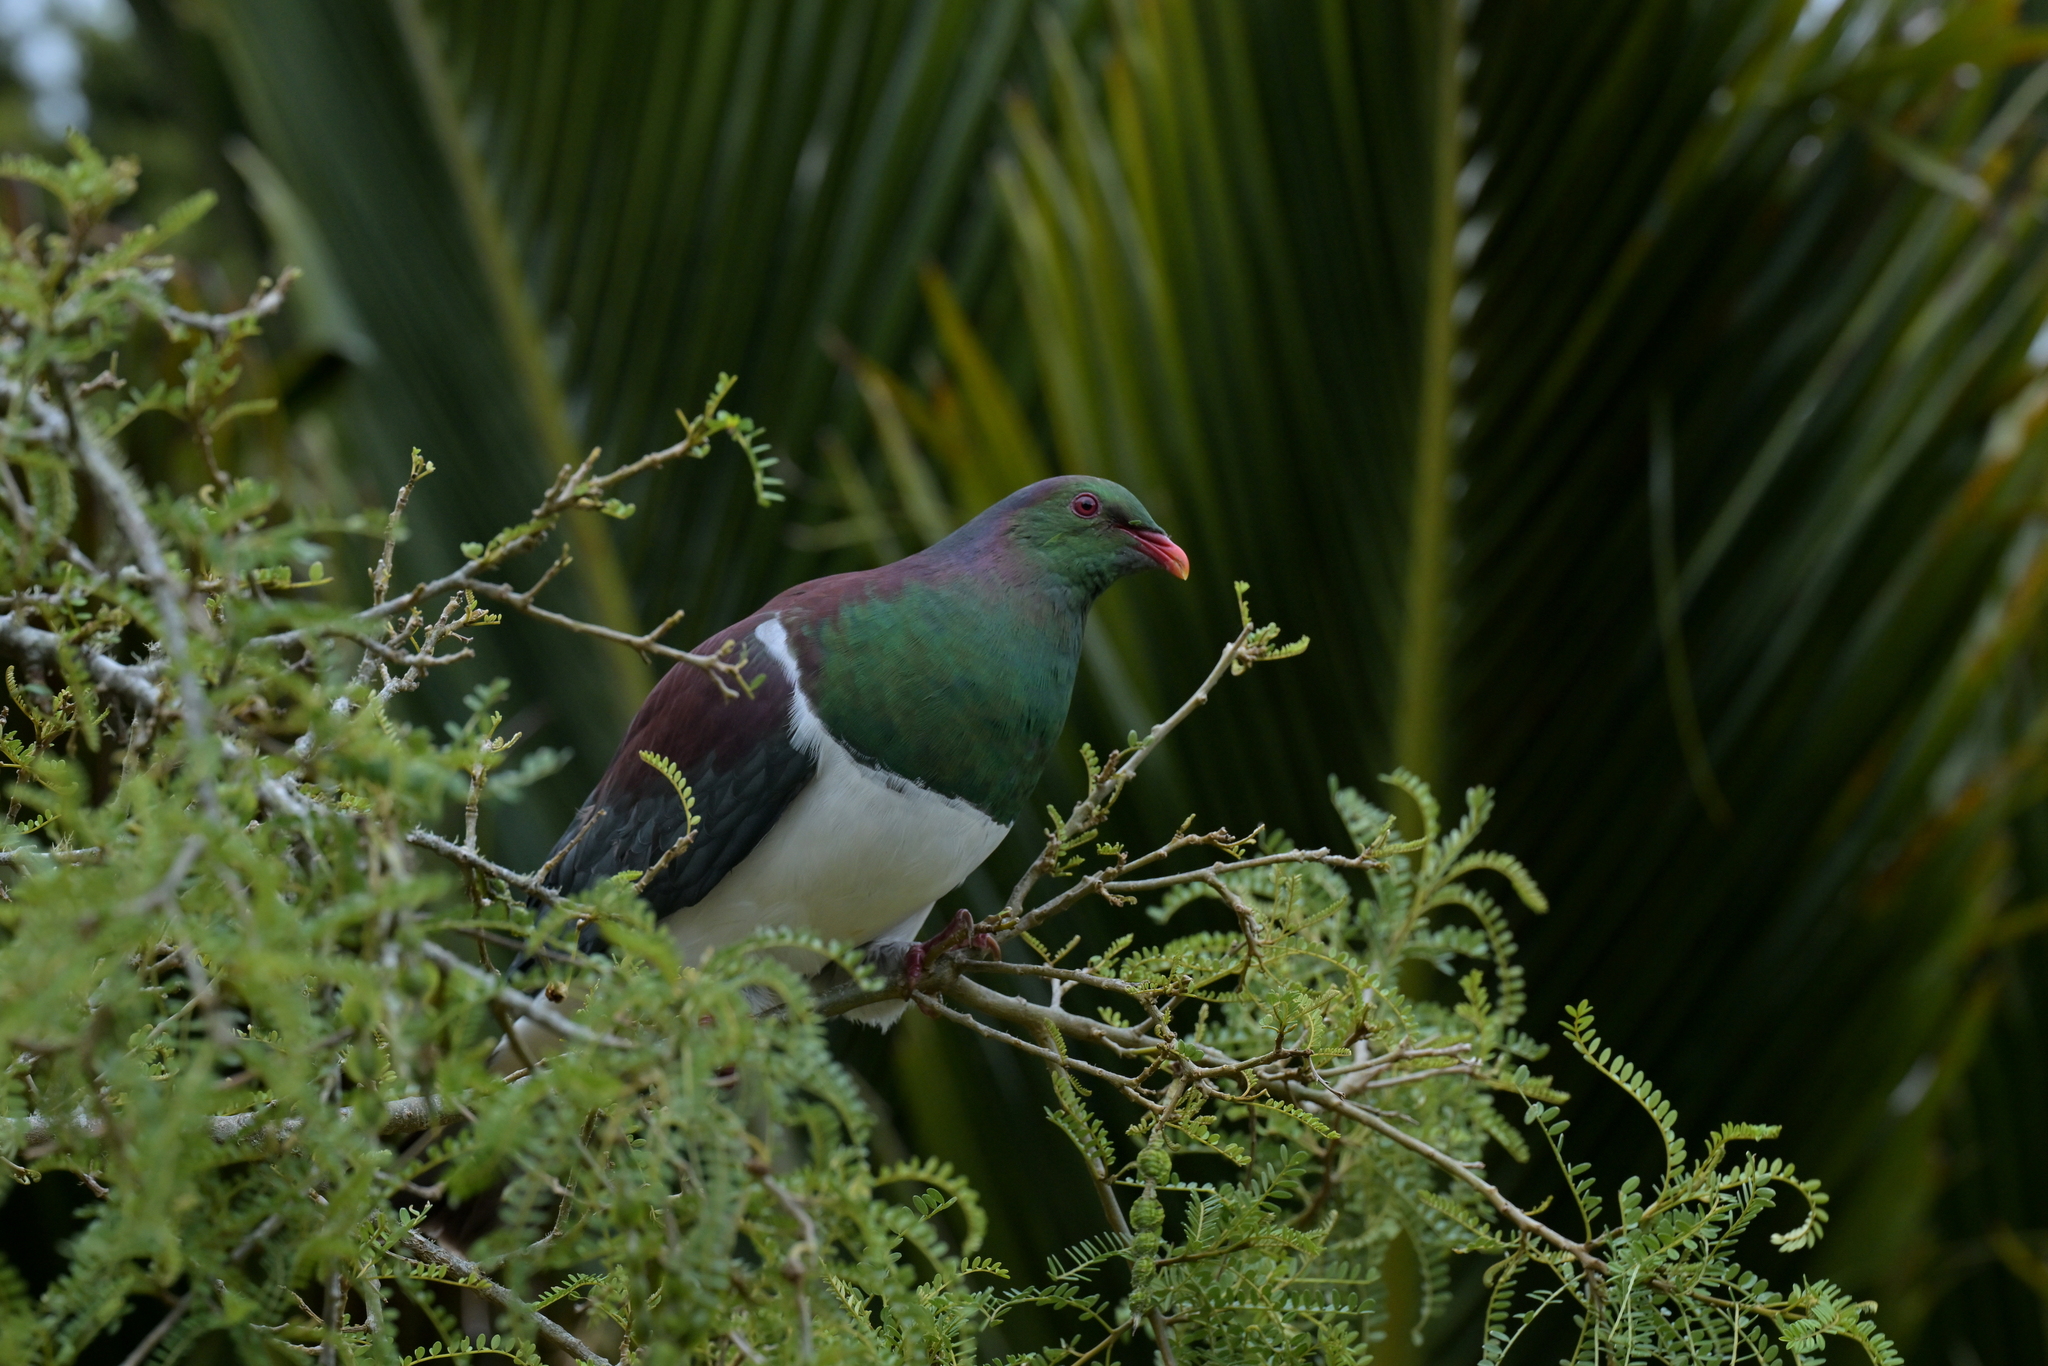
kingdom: Animalia
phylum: Chordata
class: Aves
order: Columbiformes
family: Columbidae
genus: Hemiphaga
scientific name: Hemiphaga novaeseelandiae
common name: New zealand pigeon
